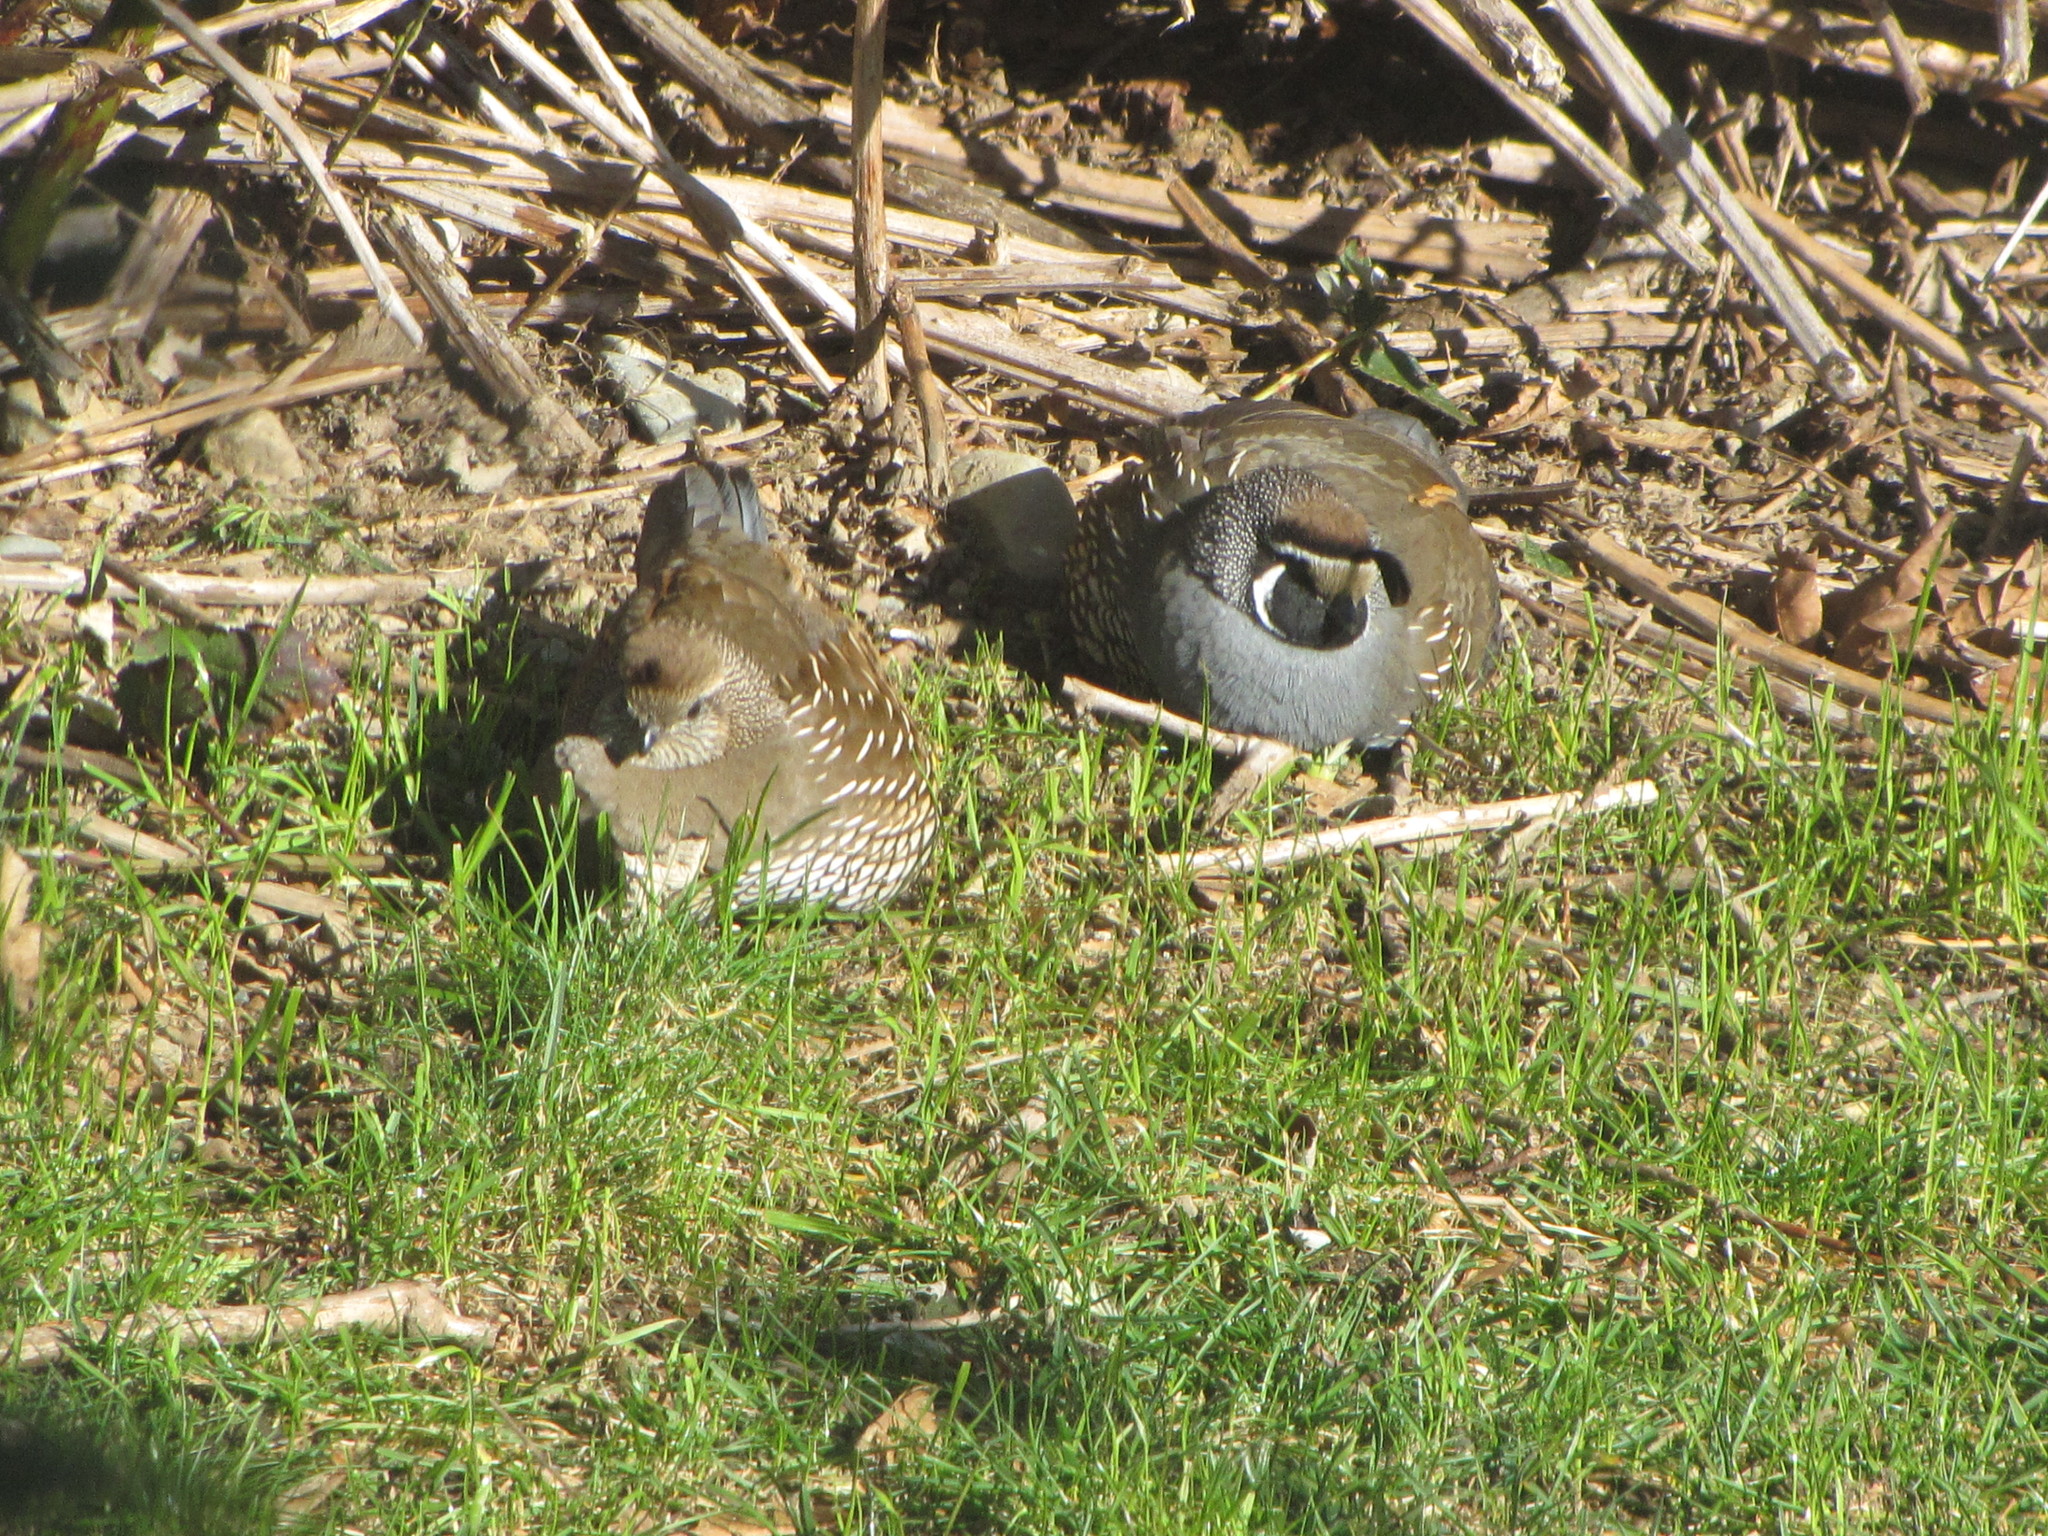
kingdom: Animalia
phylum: Chordata
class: Aves
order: Galliformes
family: Odontophoridae
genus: Callipepla
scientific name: Callipepla californica
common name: California quail
